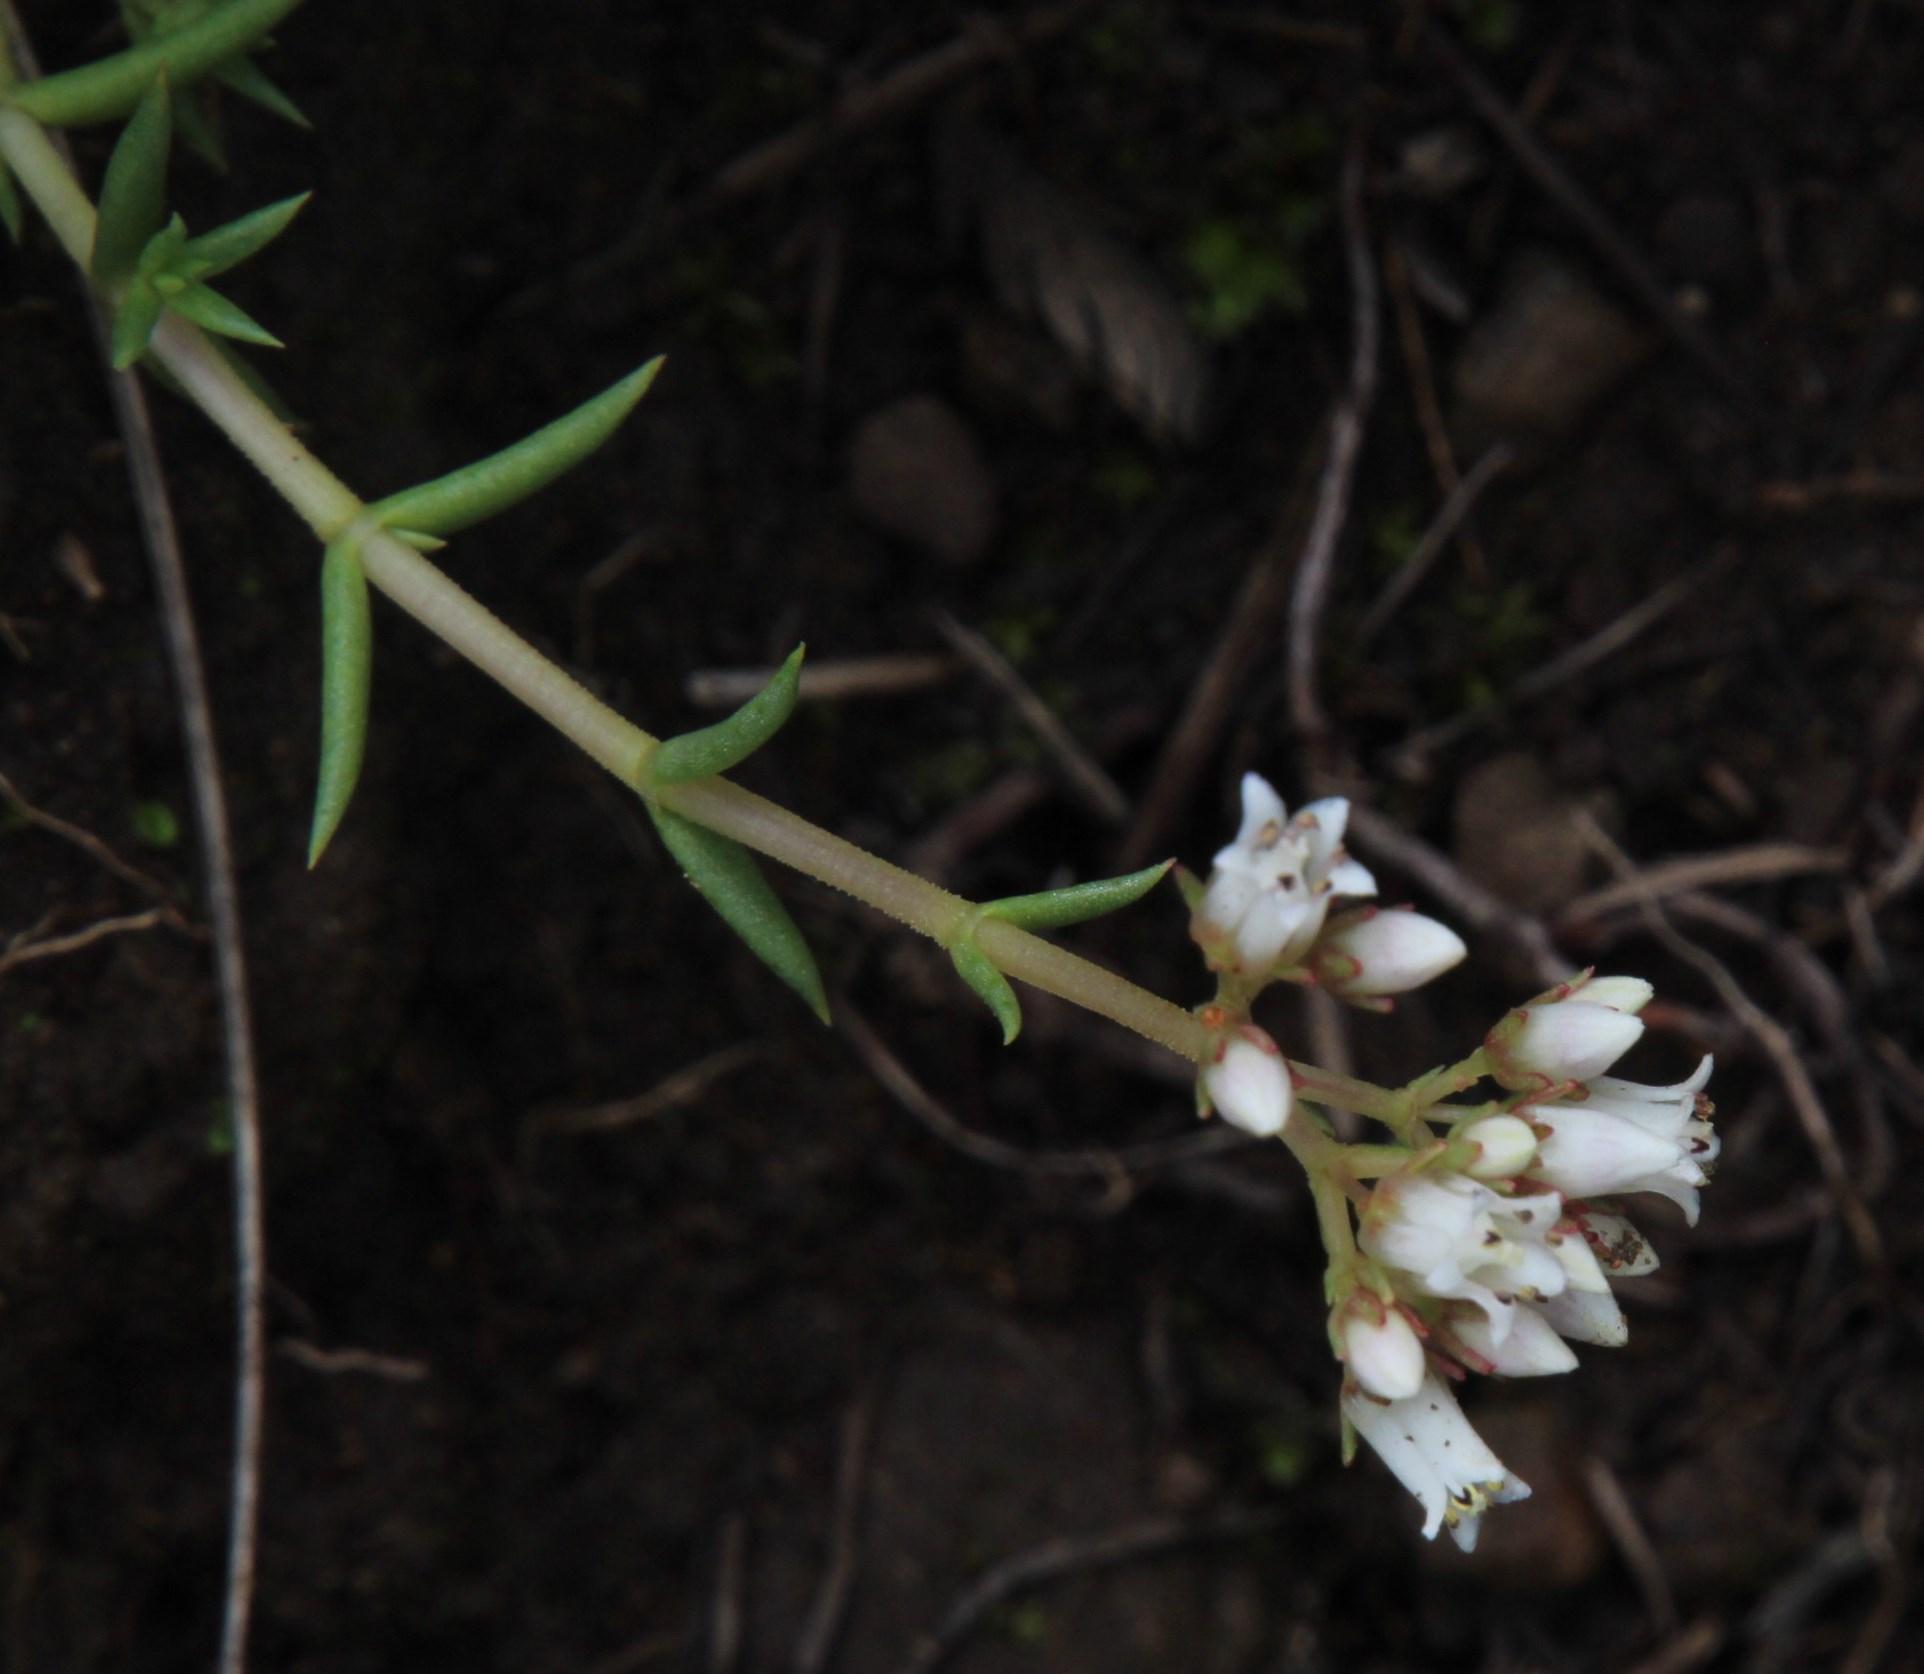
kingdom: Plantae
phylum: Tracheophyta
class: Magnoliopsida
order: Saxifragales
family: Crassulaceae
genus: Crassula
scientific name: Crassula dependens
